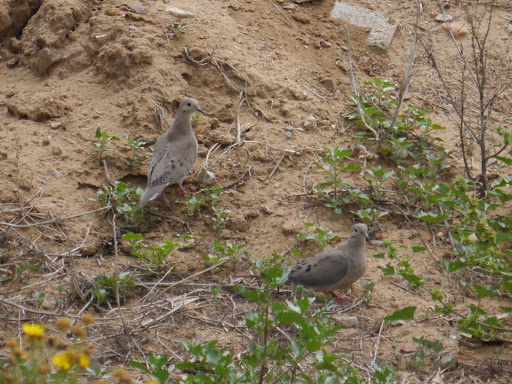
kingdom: Animalia
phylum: Chordata
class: Aves
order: Columbiformes
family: Columbidae
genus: Zenaida
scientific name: Zenaida macroura
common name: Mourning dove
